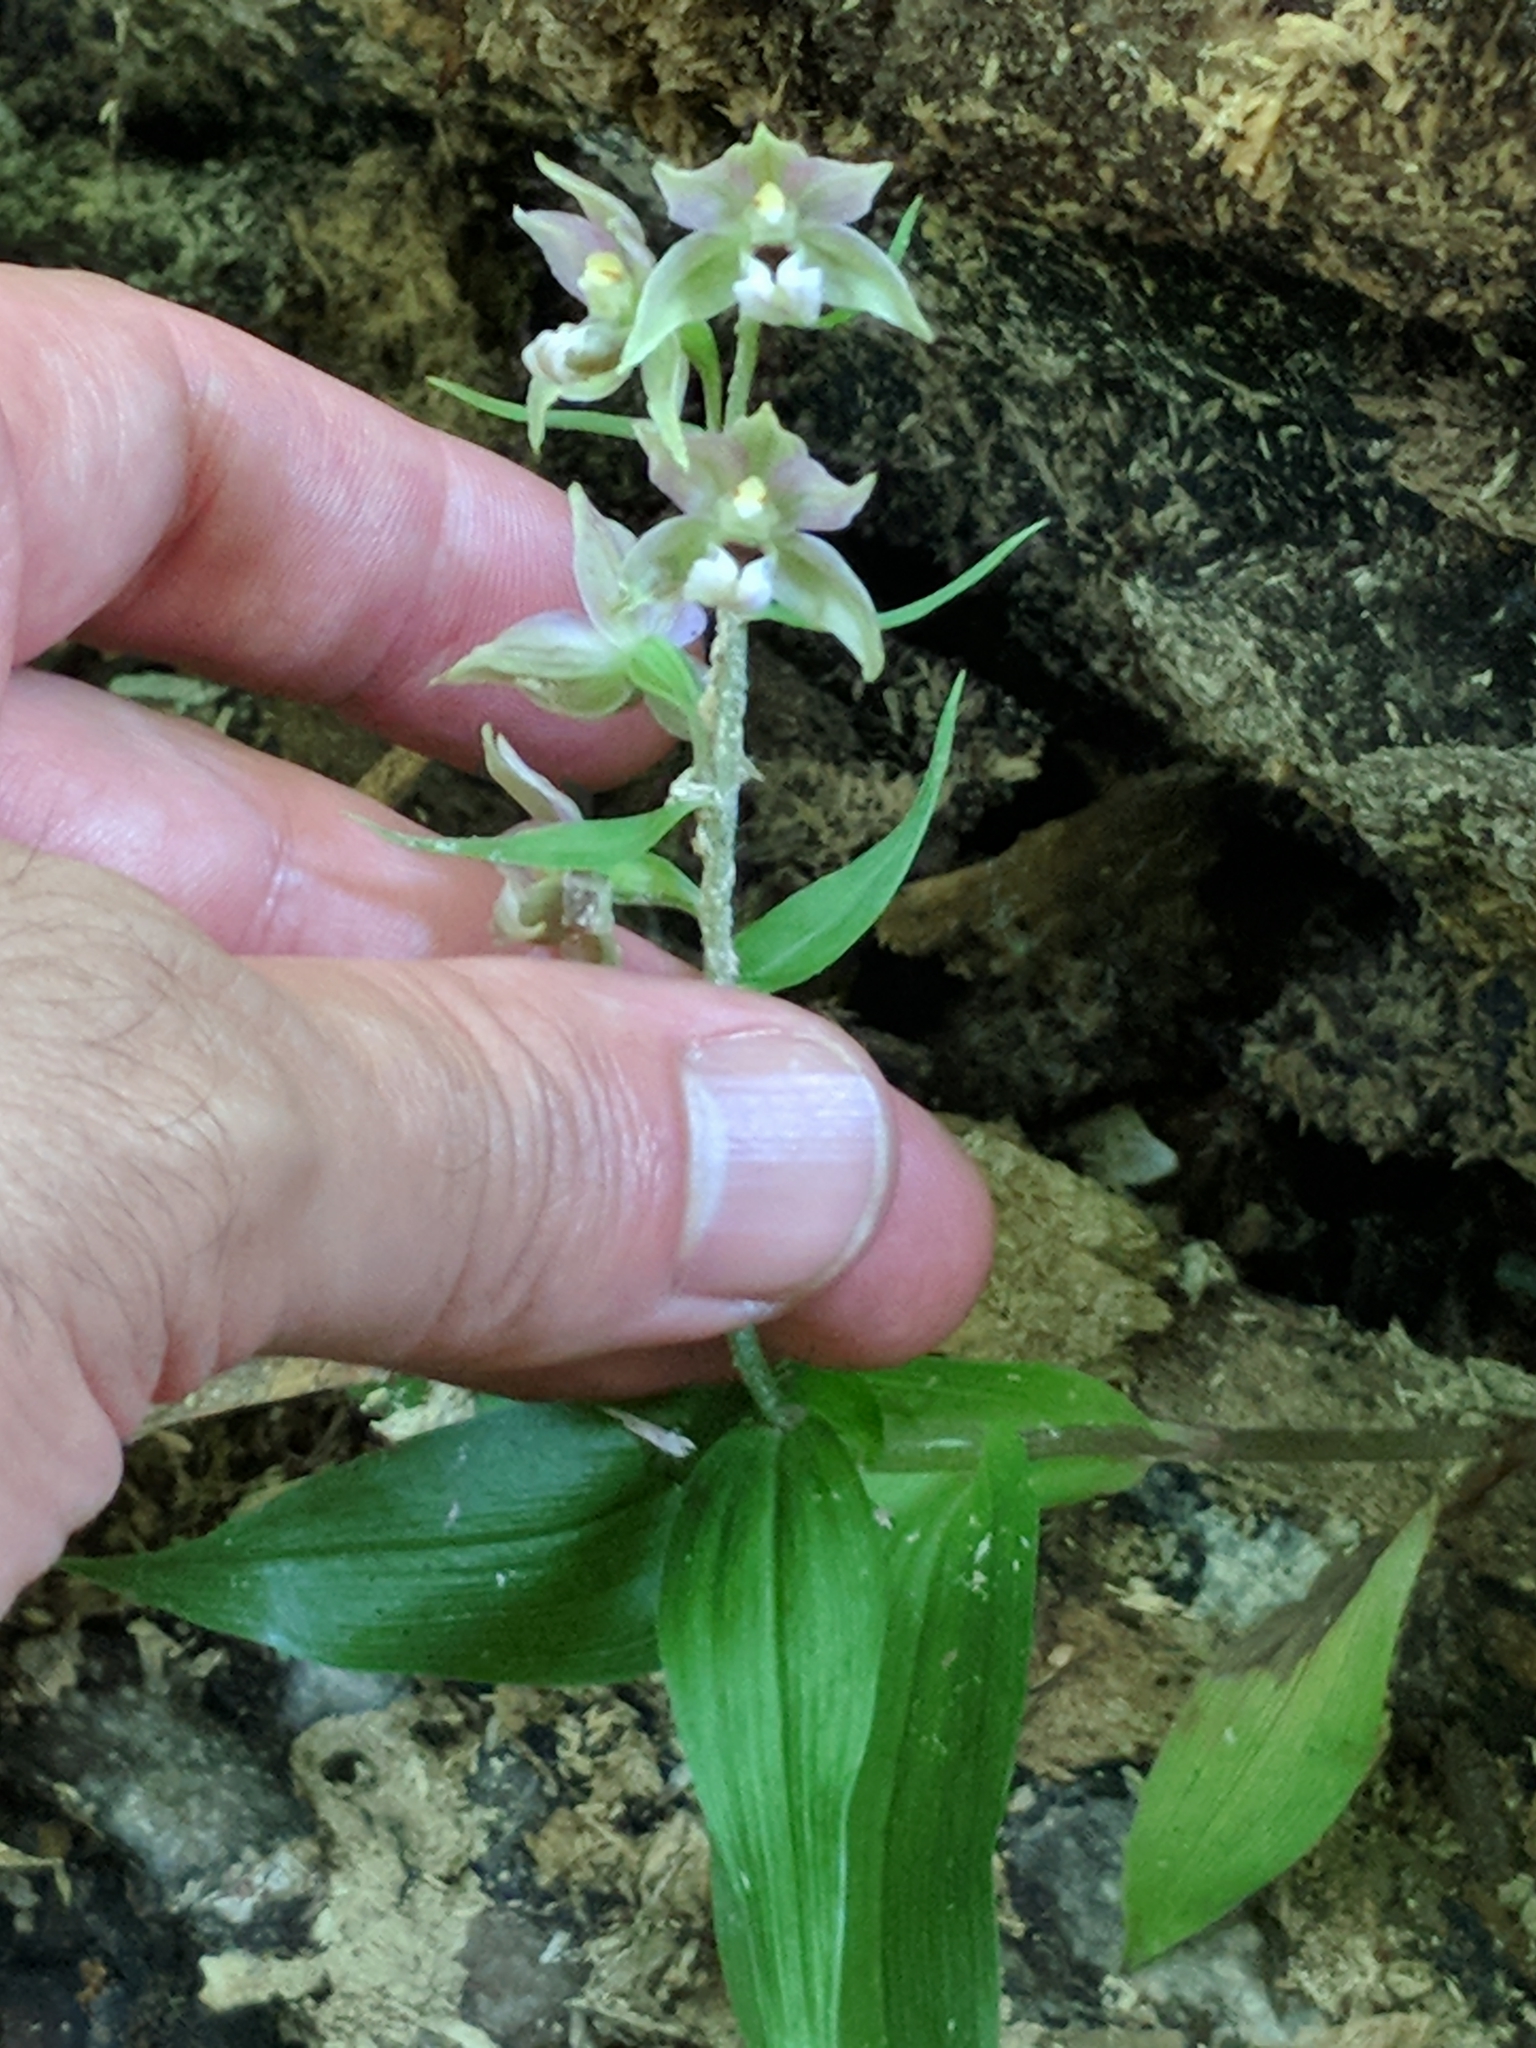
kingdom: Plantae
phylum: Tracheophyta
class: Liliopsida
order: Asparagales
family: Orchidaceae
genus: Epipactis
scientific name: Epipactis helleborine
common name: Broad-leaved helleborine
